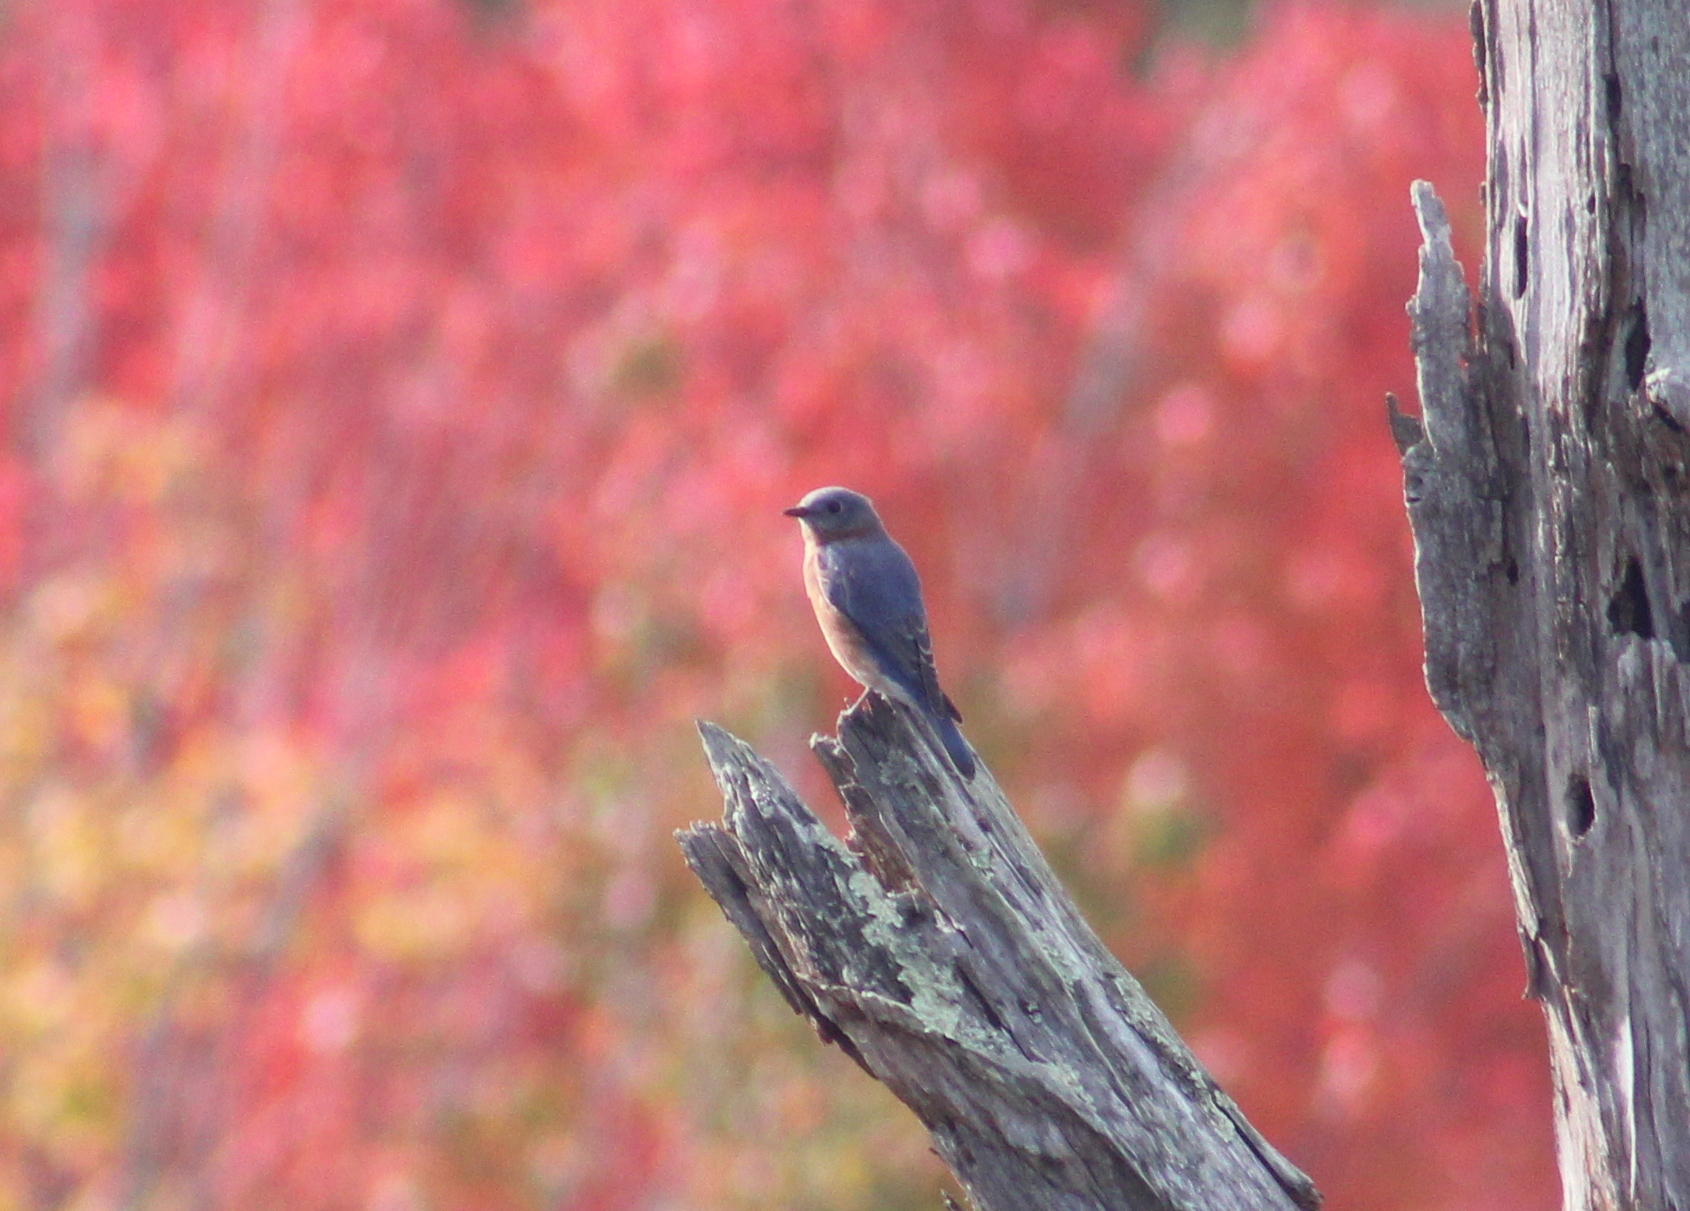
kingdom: Animalia
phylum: Chordata
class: Aves
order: Passeriformes
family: Turdidae
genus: Sialia
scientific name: Sialia sialis
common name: Eastern bluebird
